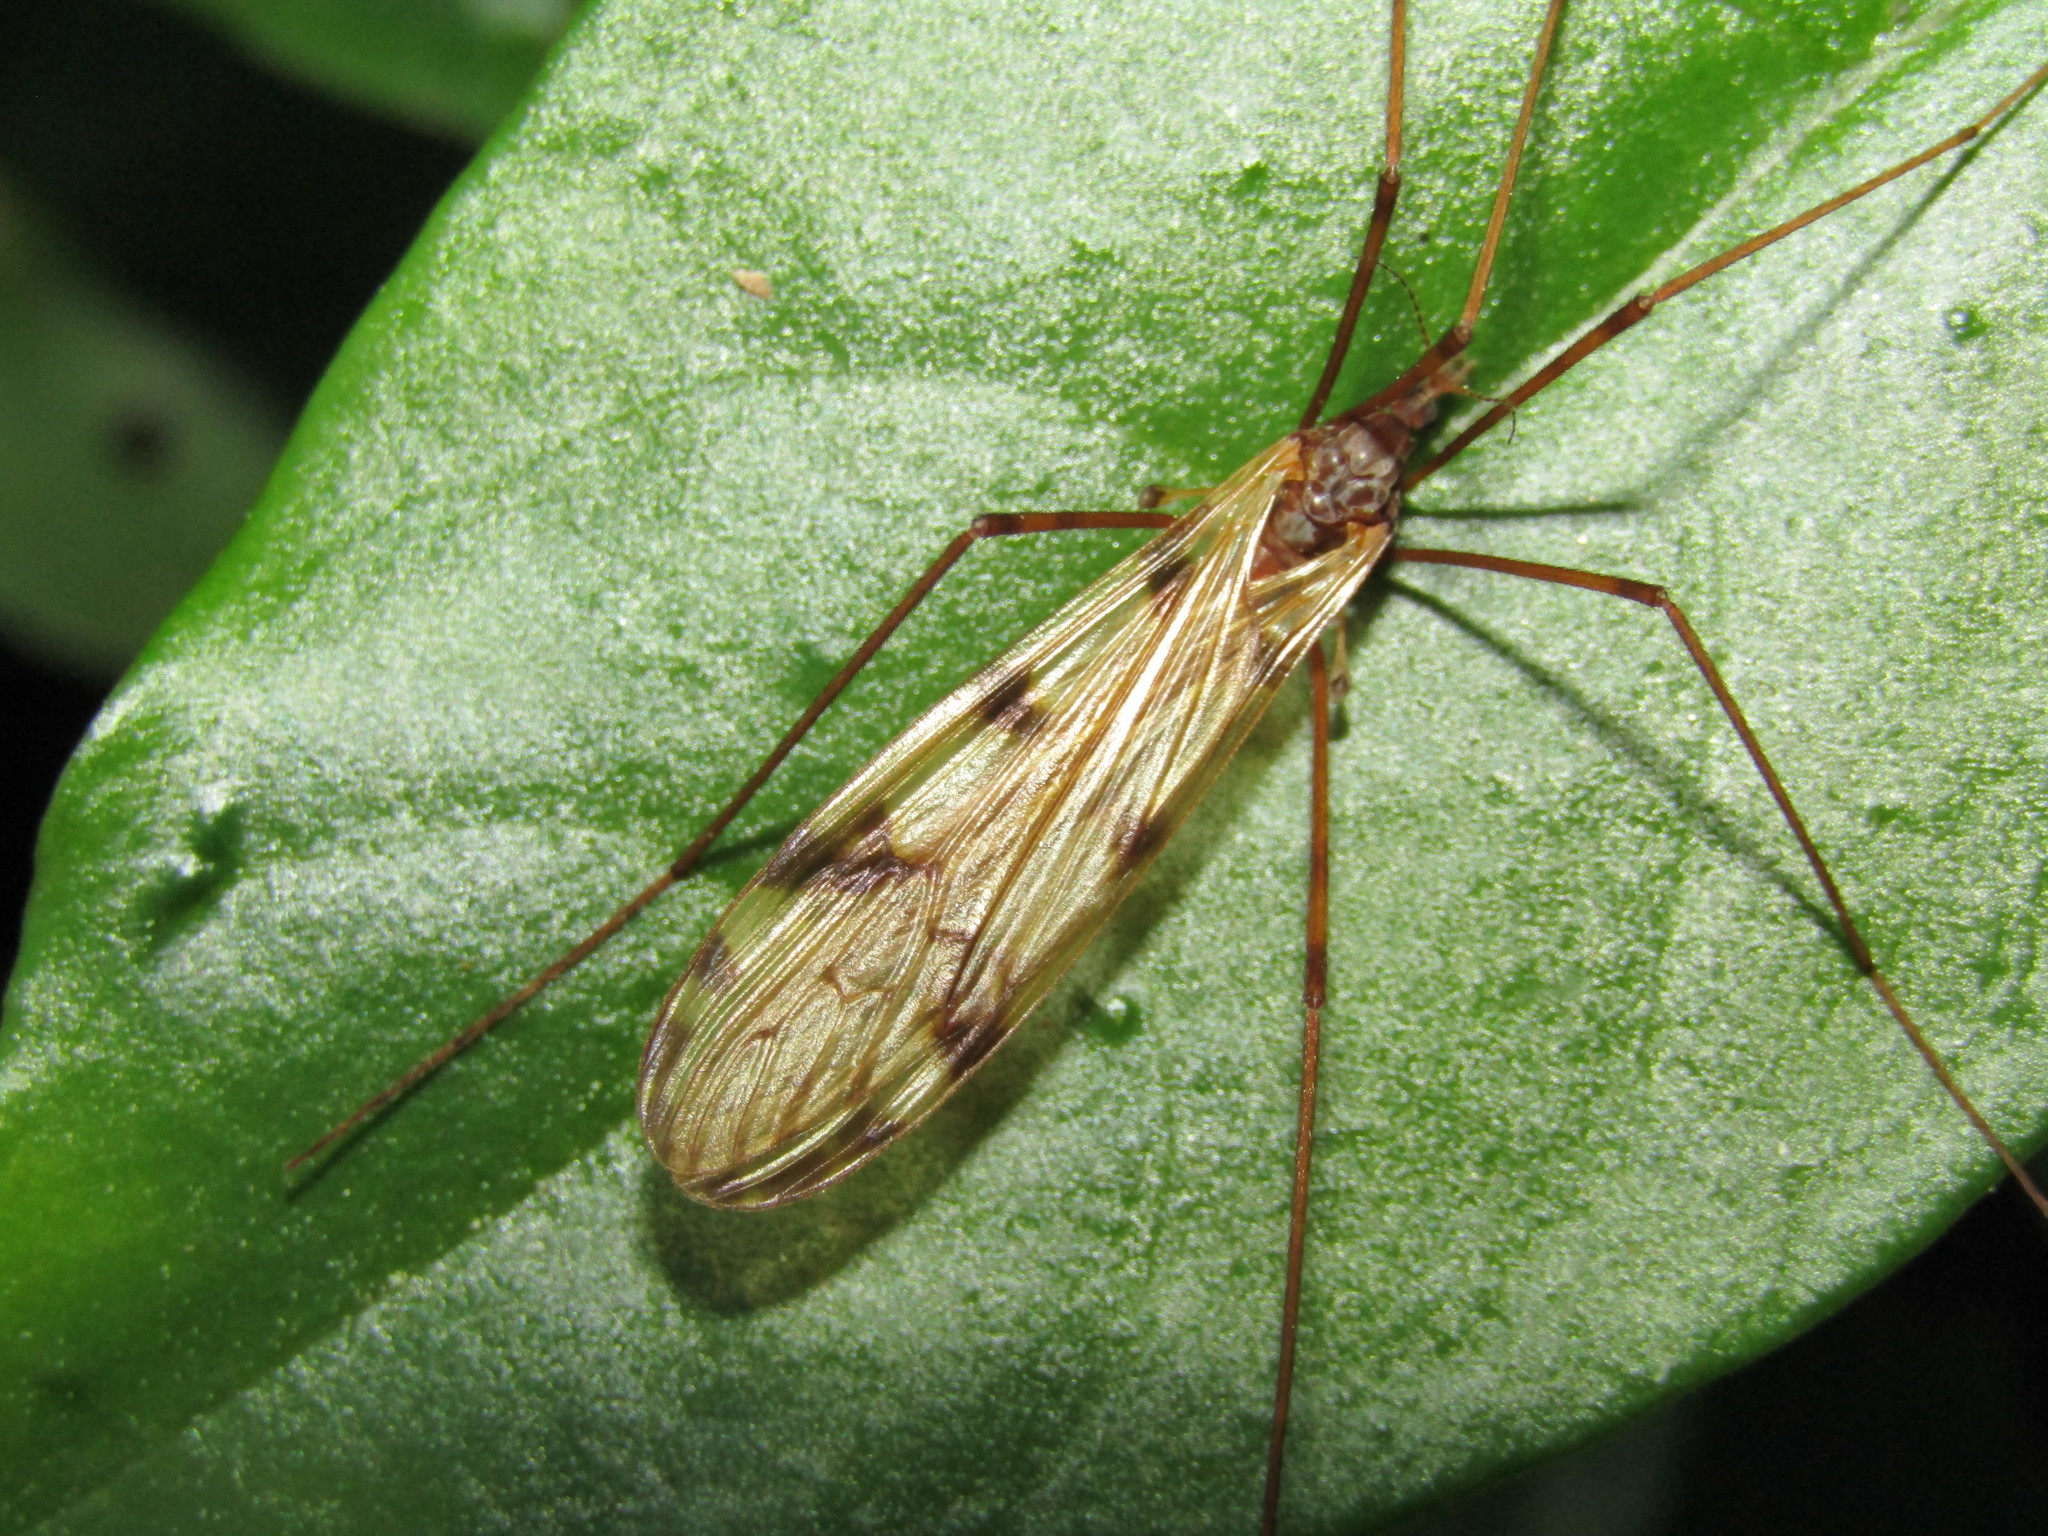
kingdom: Animalia
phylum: Arthropoda
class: Insecta
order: Diptera
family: Limoniidae
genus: Austrolimnophila
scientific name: Austrolimnophila atripes
